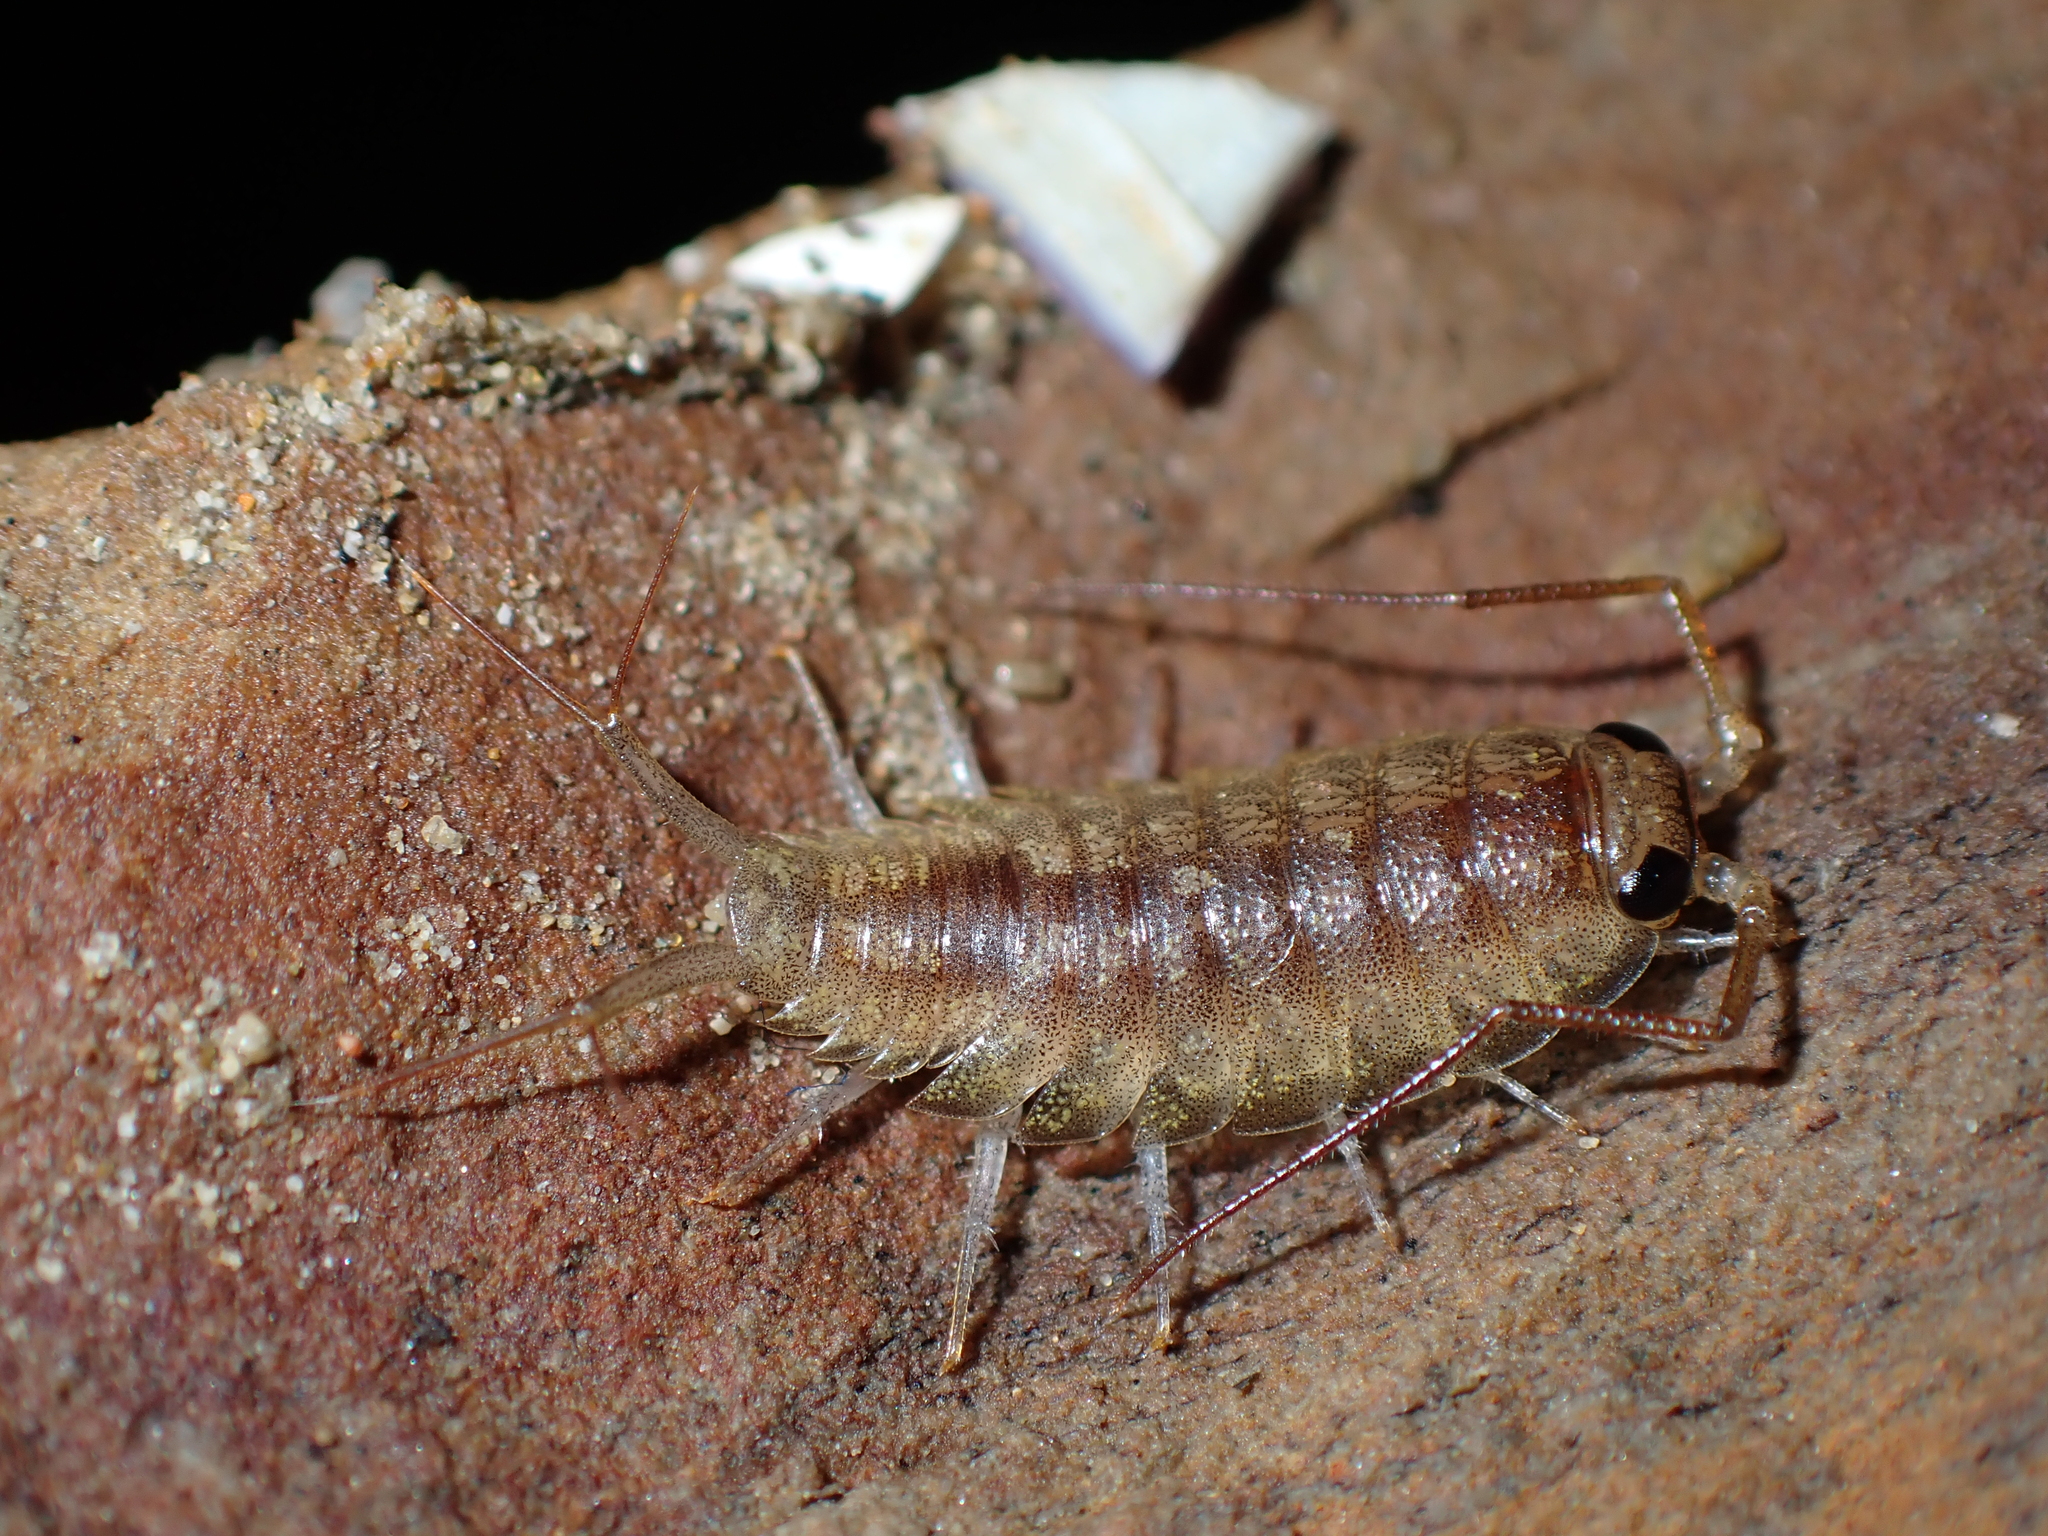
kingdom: Animalia
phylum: Arthropoda
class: Malacostraca
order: Isopoda
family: Ligiidae
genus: Ligia
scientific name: Ligia novizealandiae
